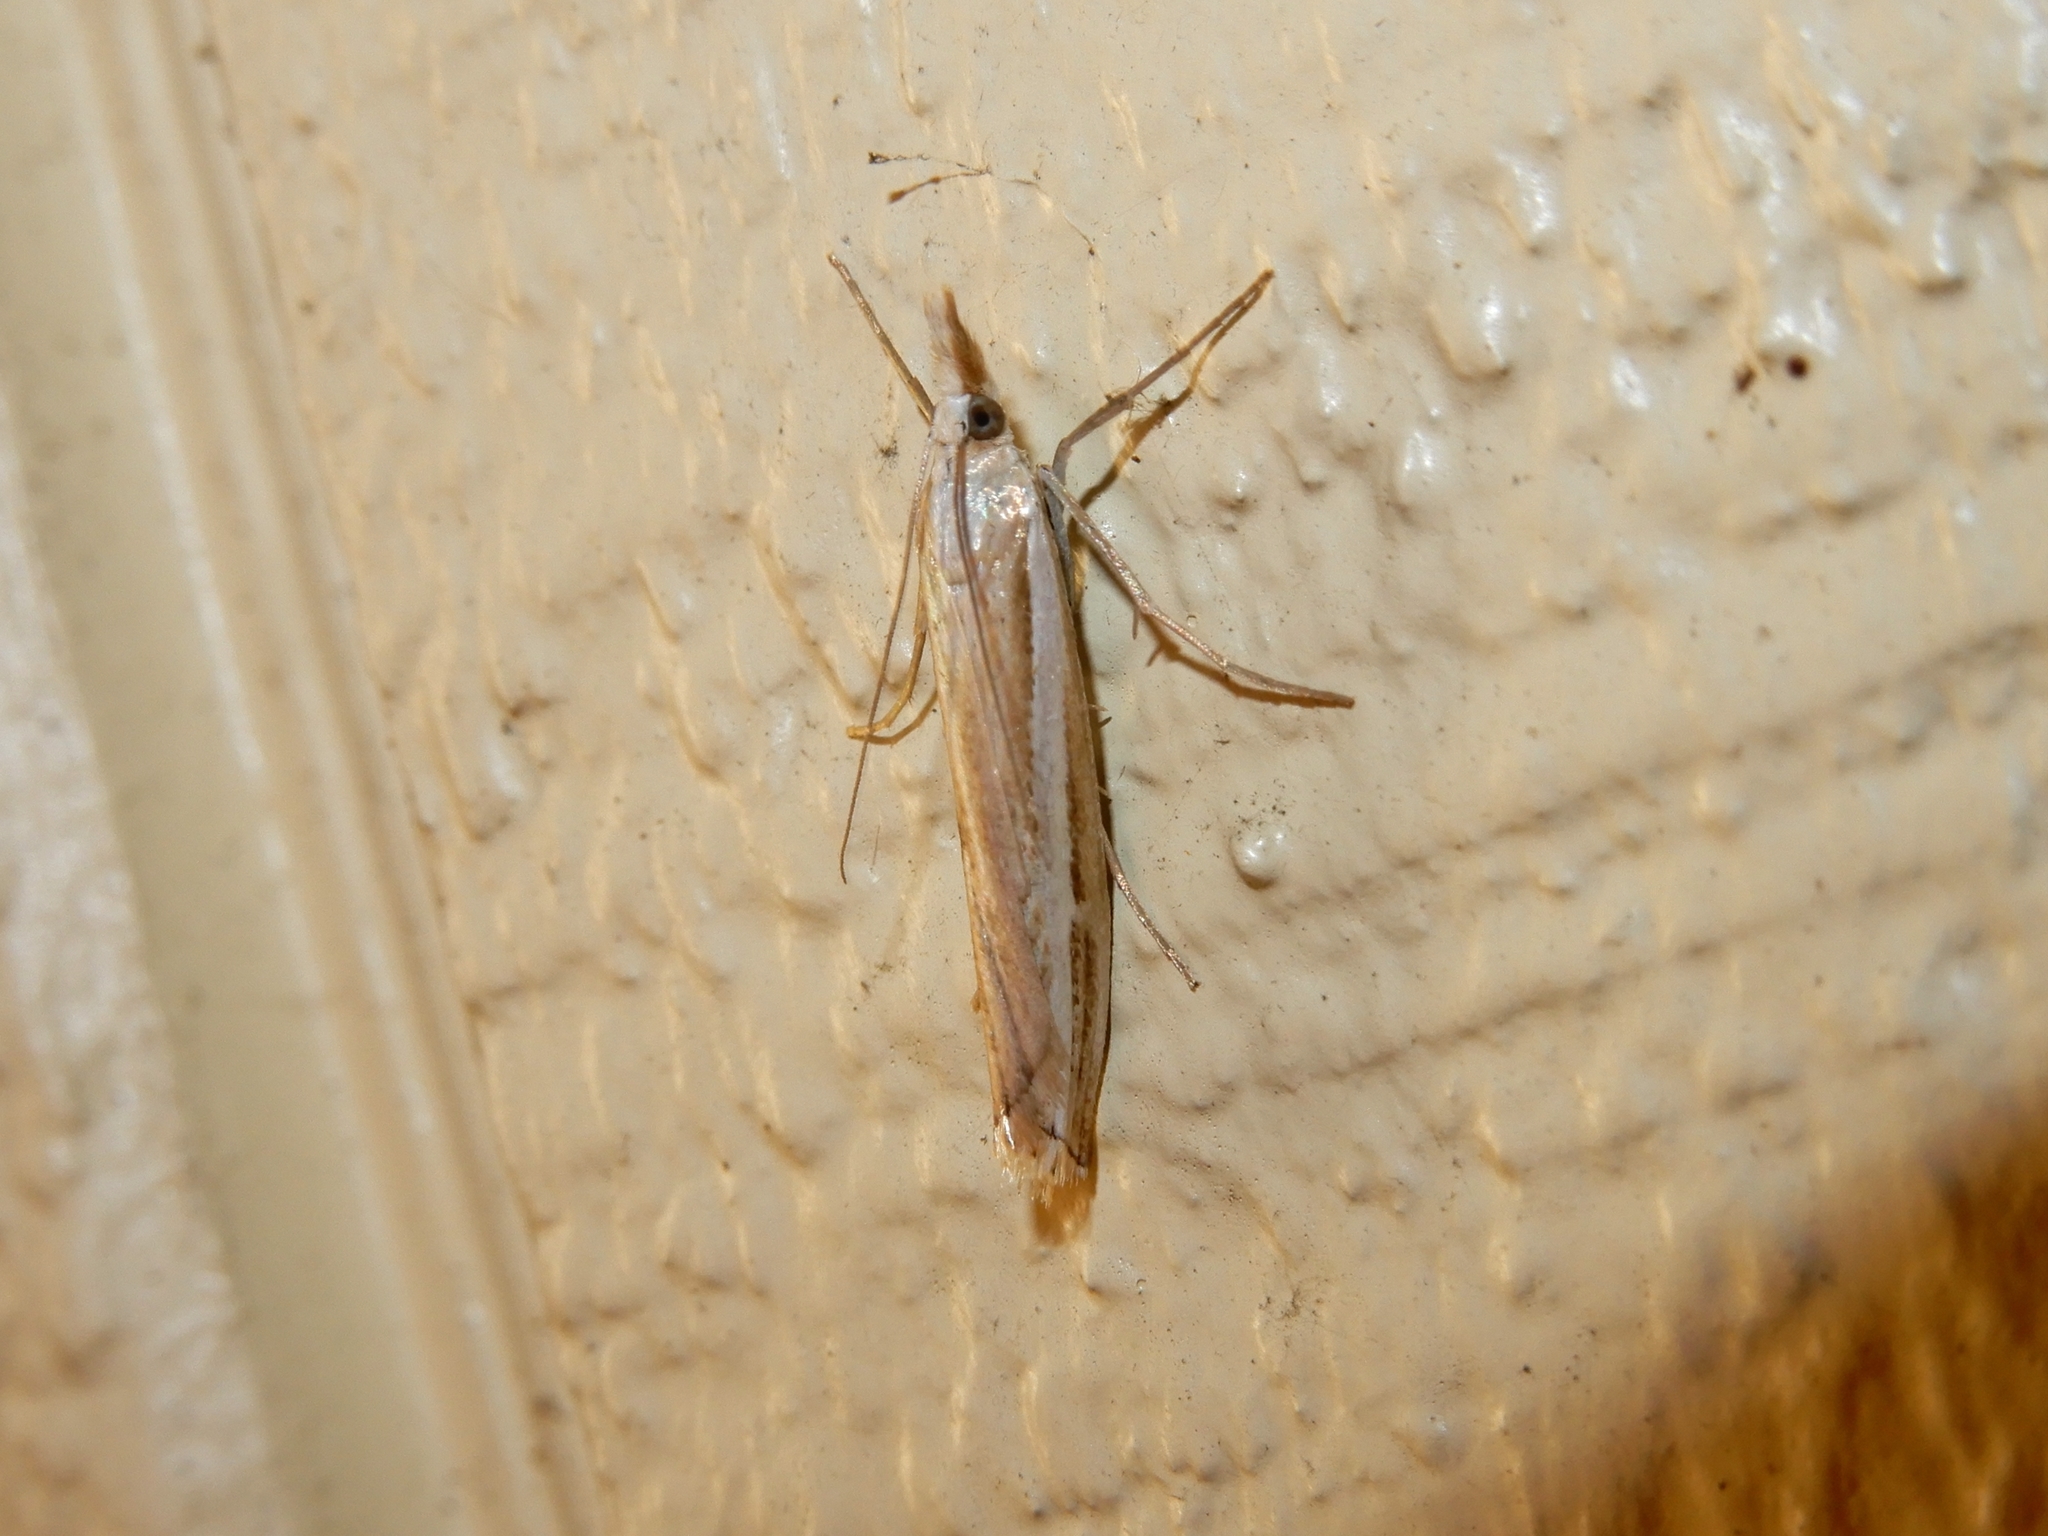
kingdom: Animalia
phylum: Arthropoda
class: Insecta
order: Lepidoptera
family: Crambidae
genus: Orocrambus
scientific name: Orocrambus vittellus
